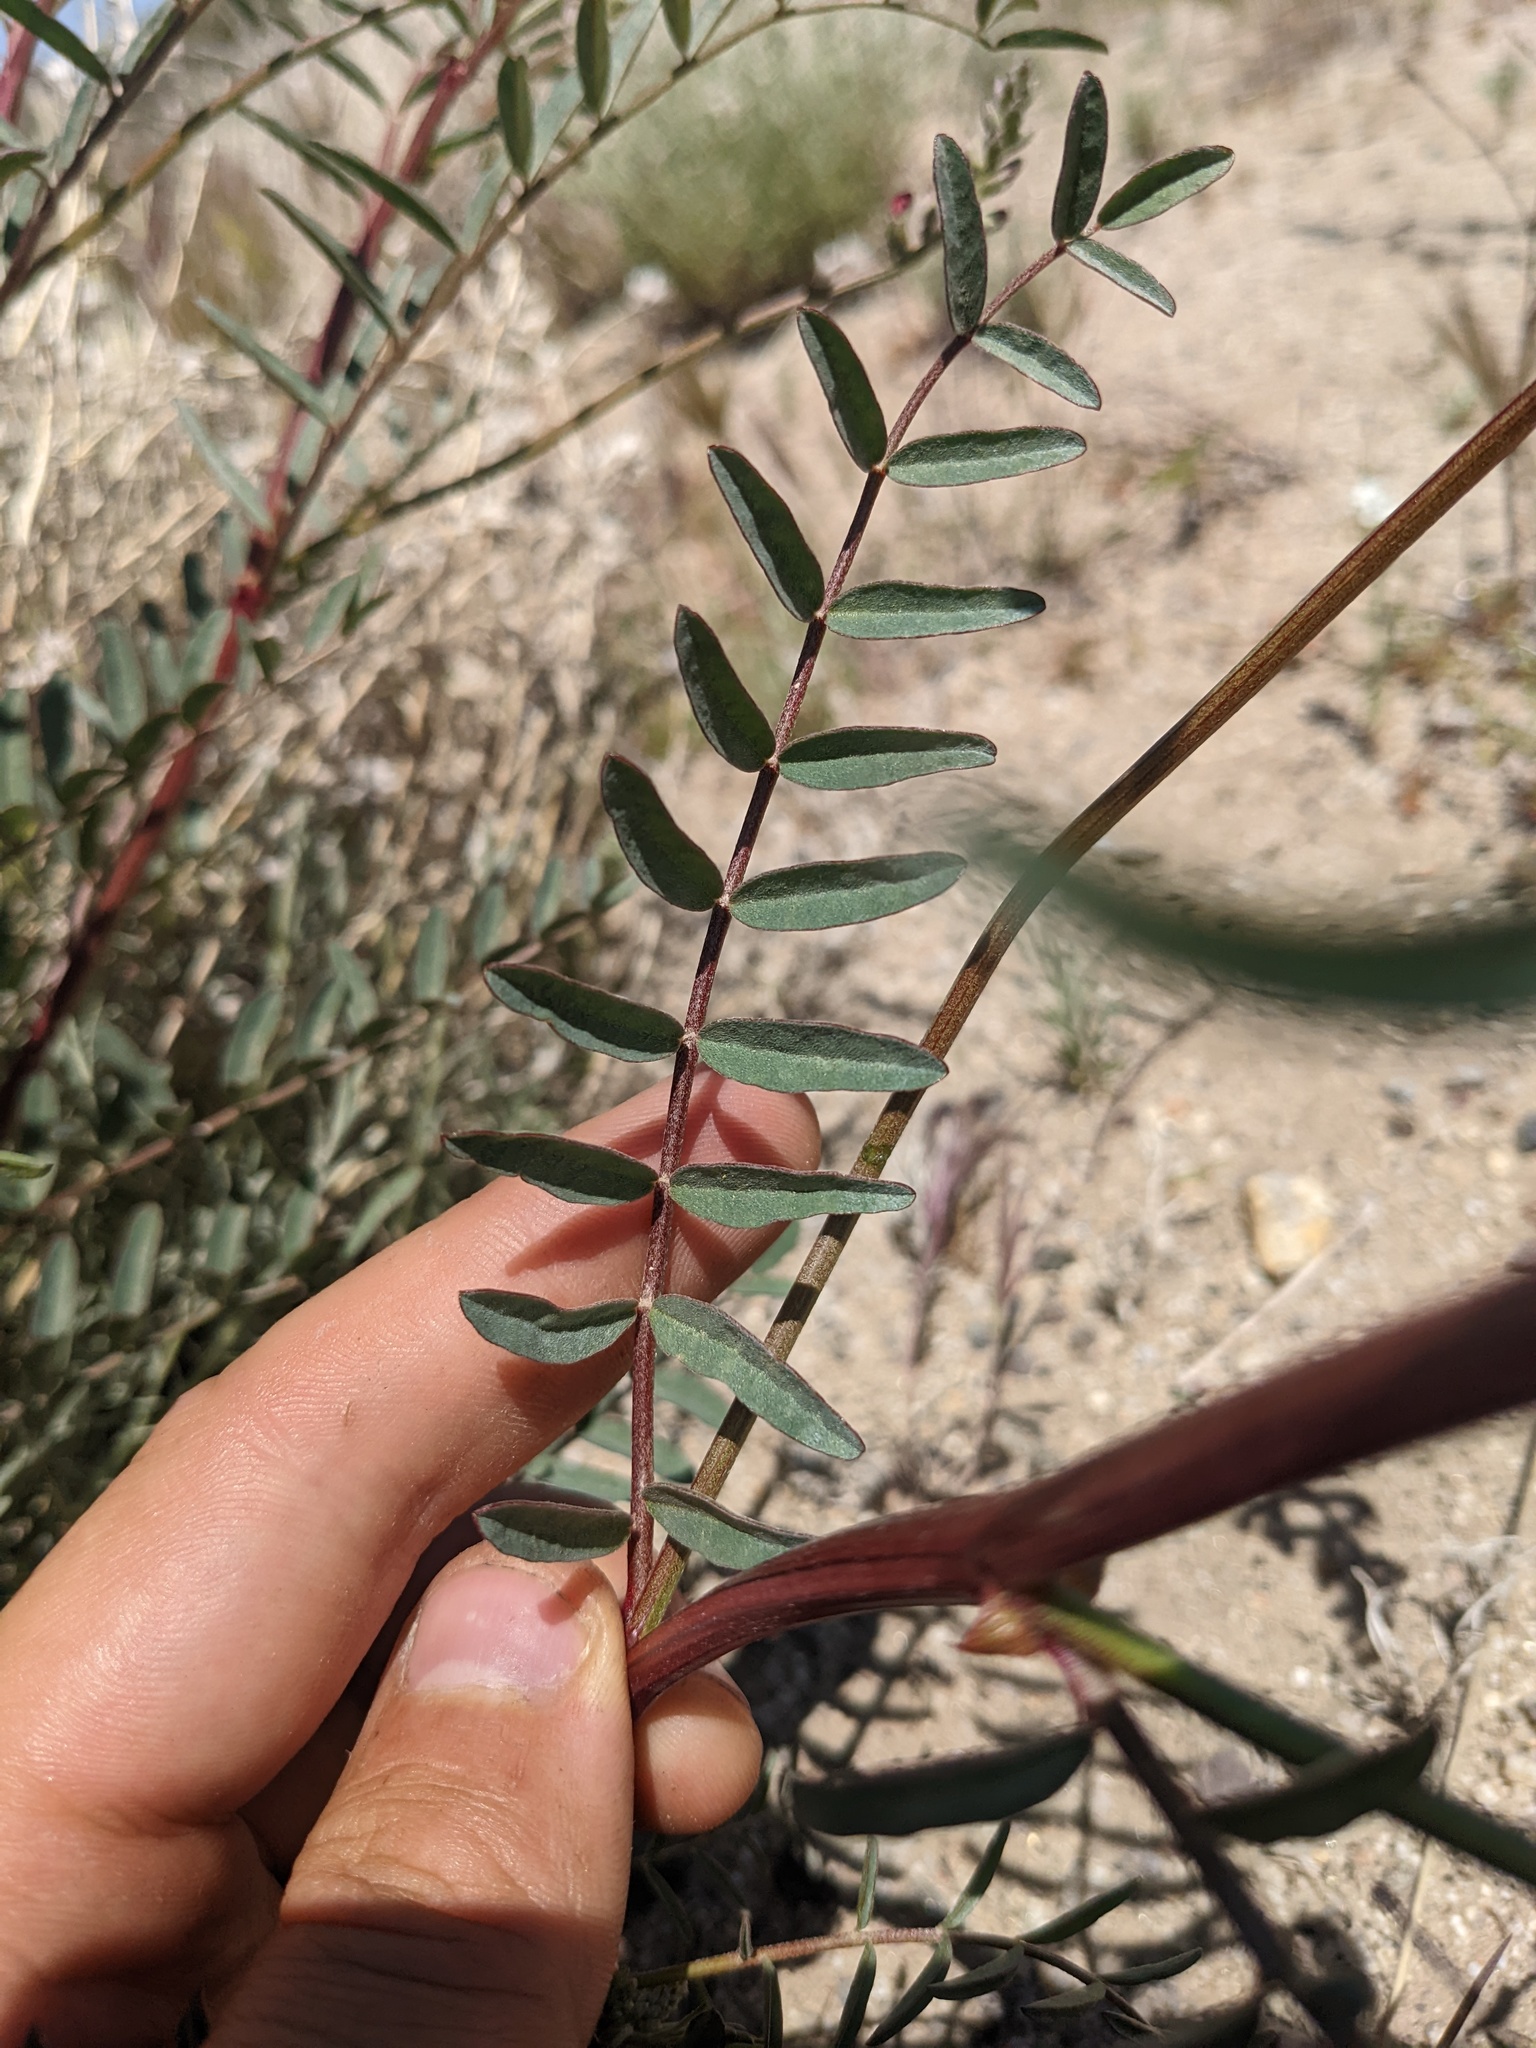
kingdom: Plantae
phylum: Tracheophyta
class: Magnoliopsida
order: Fabales
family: Fabaceae
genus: Astragalus
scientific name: Astragalus douglasii
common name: Jacumba milkvetch
